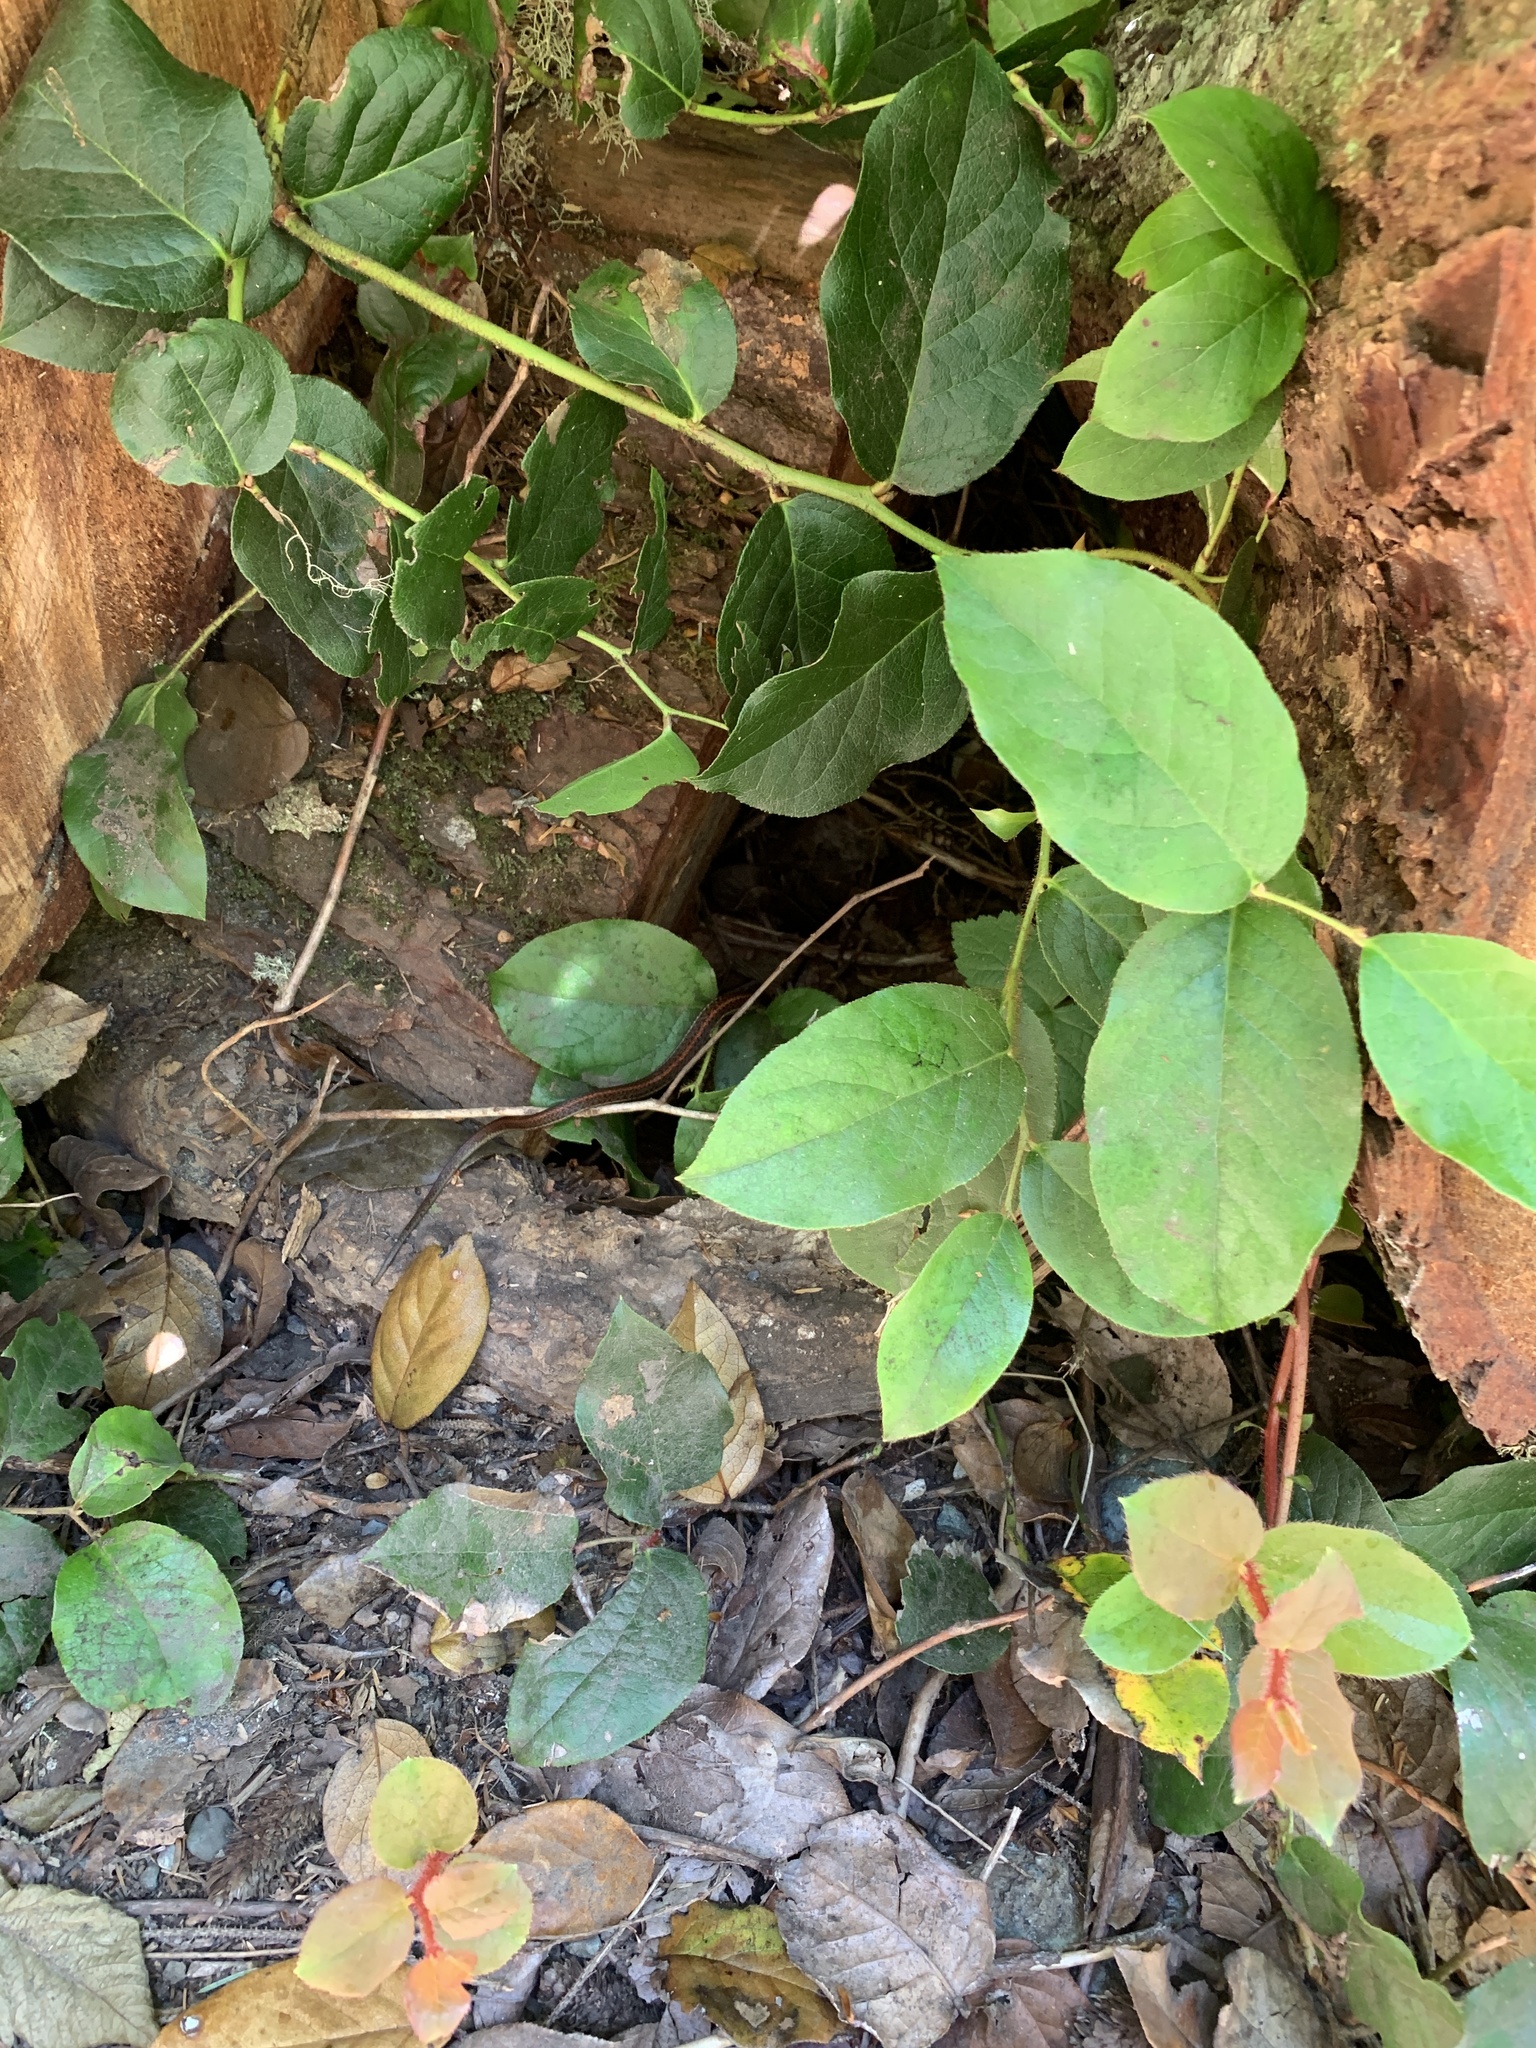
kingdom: Animalia
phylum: Chordata
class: Squamata
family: Colubridae
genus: Thamnophis
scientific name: Thamnophis ordinoides
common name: Northwestern garter snake
